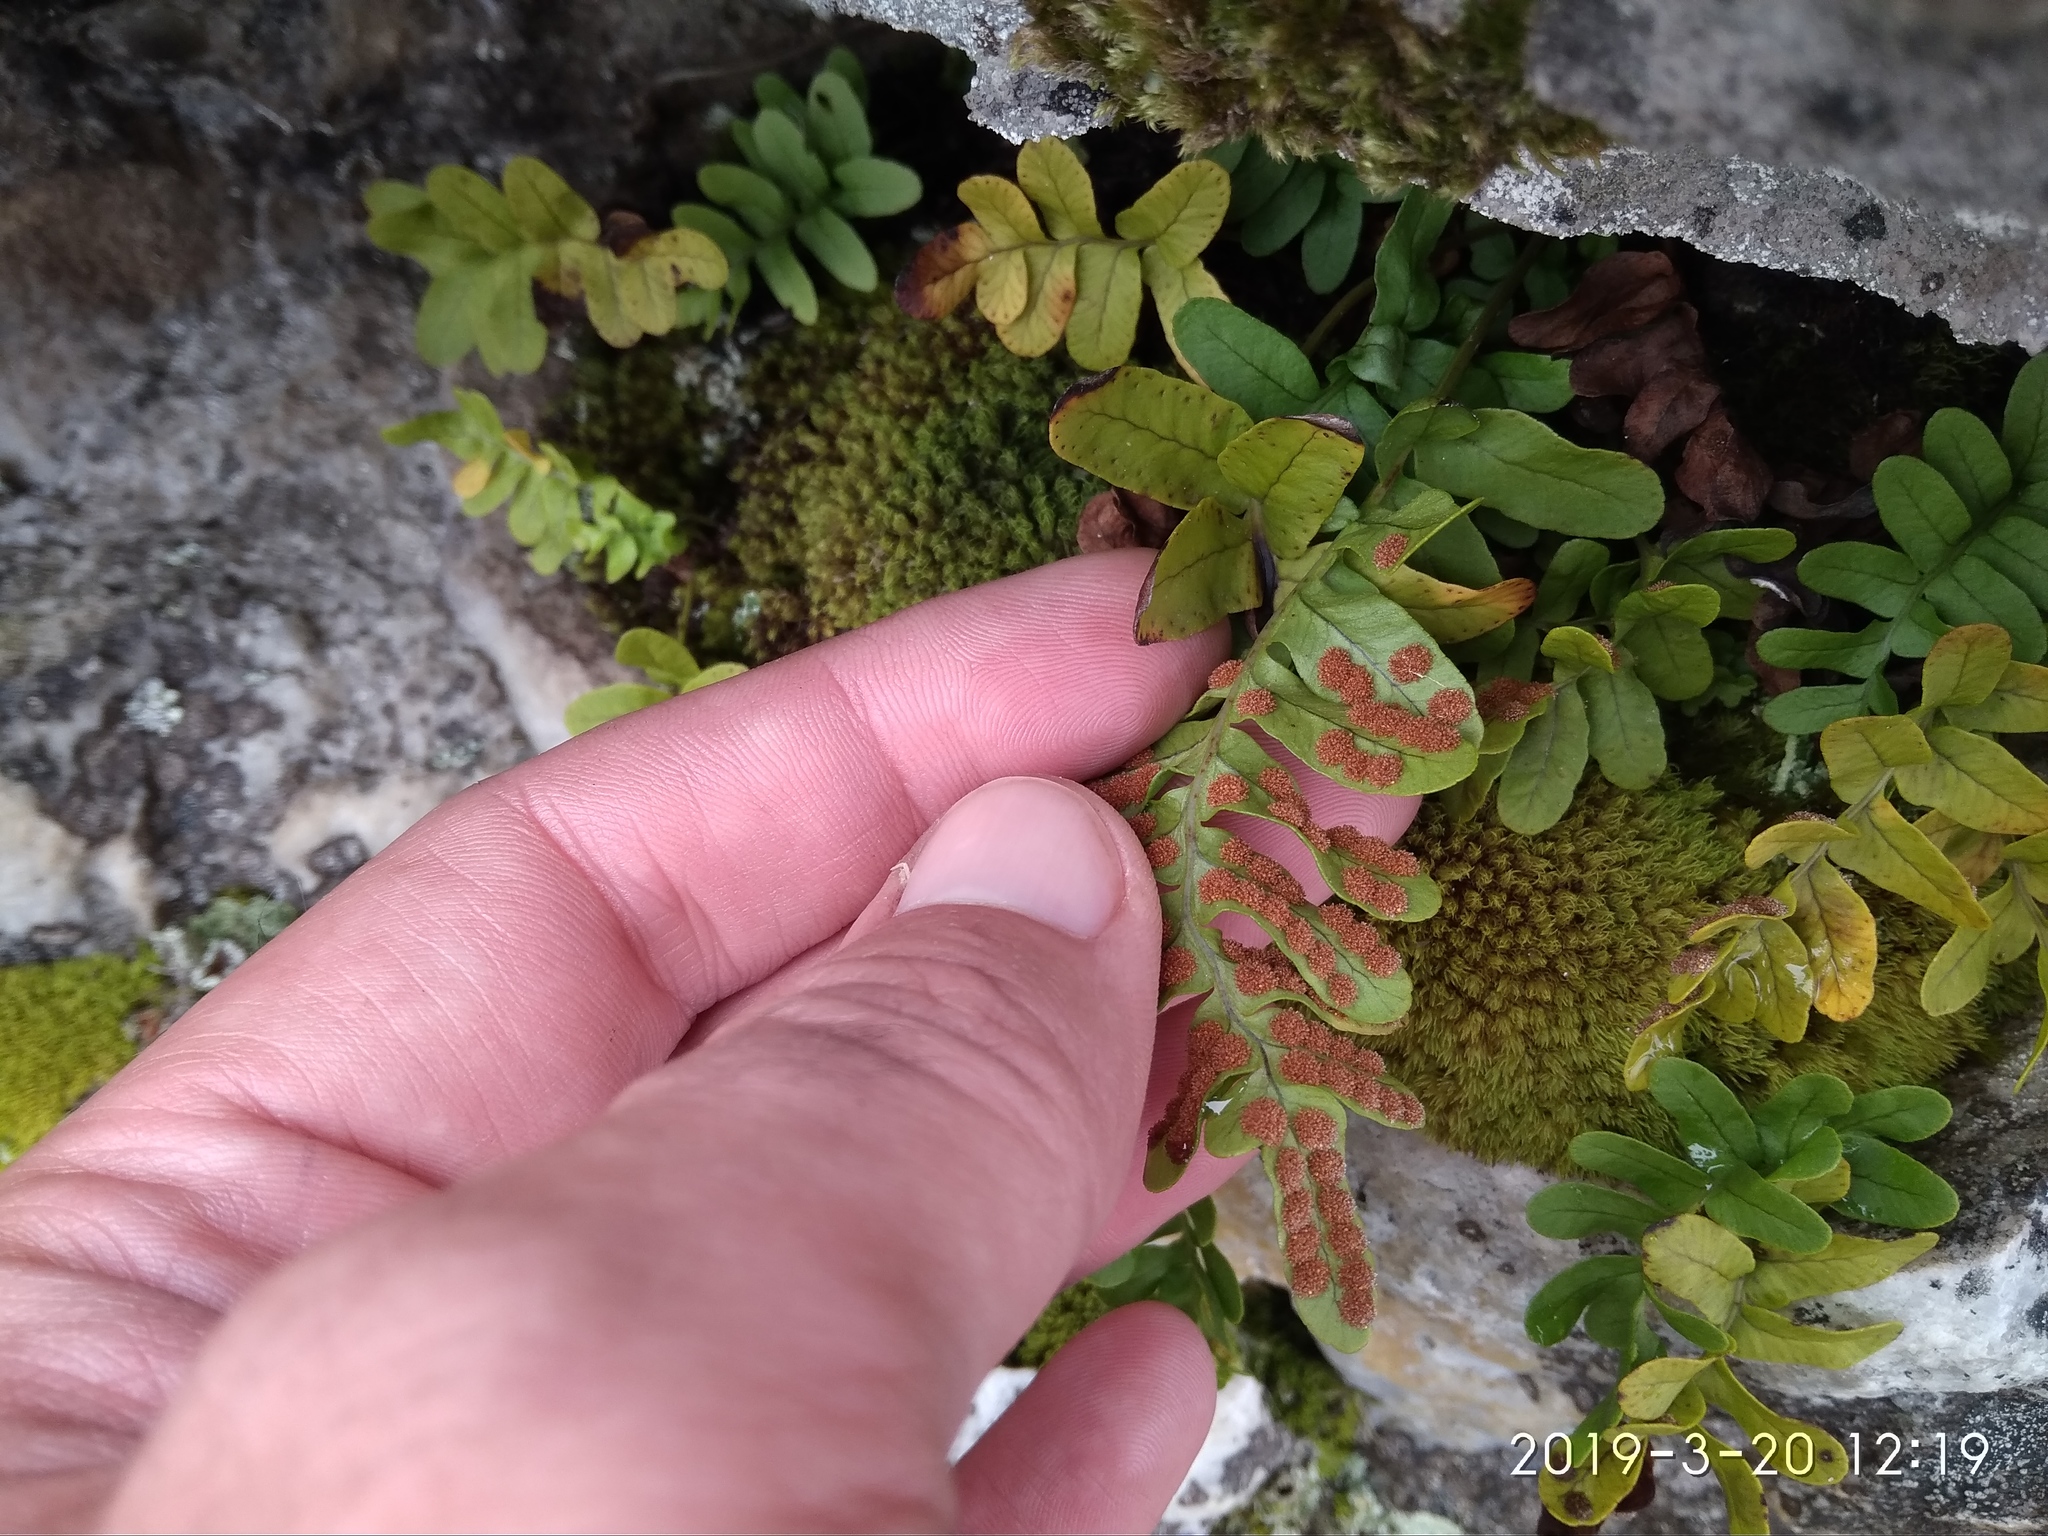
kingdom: Plantae
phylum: Tracheophyta
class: Polypodiopsida
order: Polypodiales
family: Polypodiaceae
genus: Polypodium
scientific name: Polypodium vulgare
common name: Common polypody
